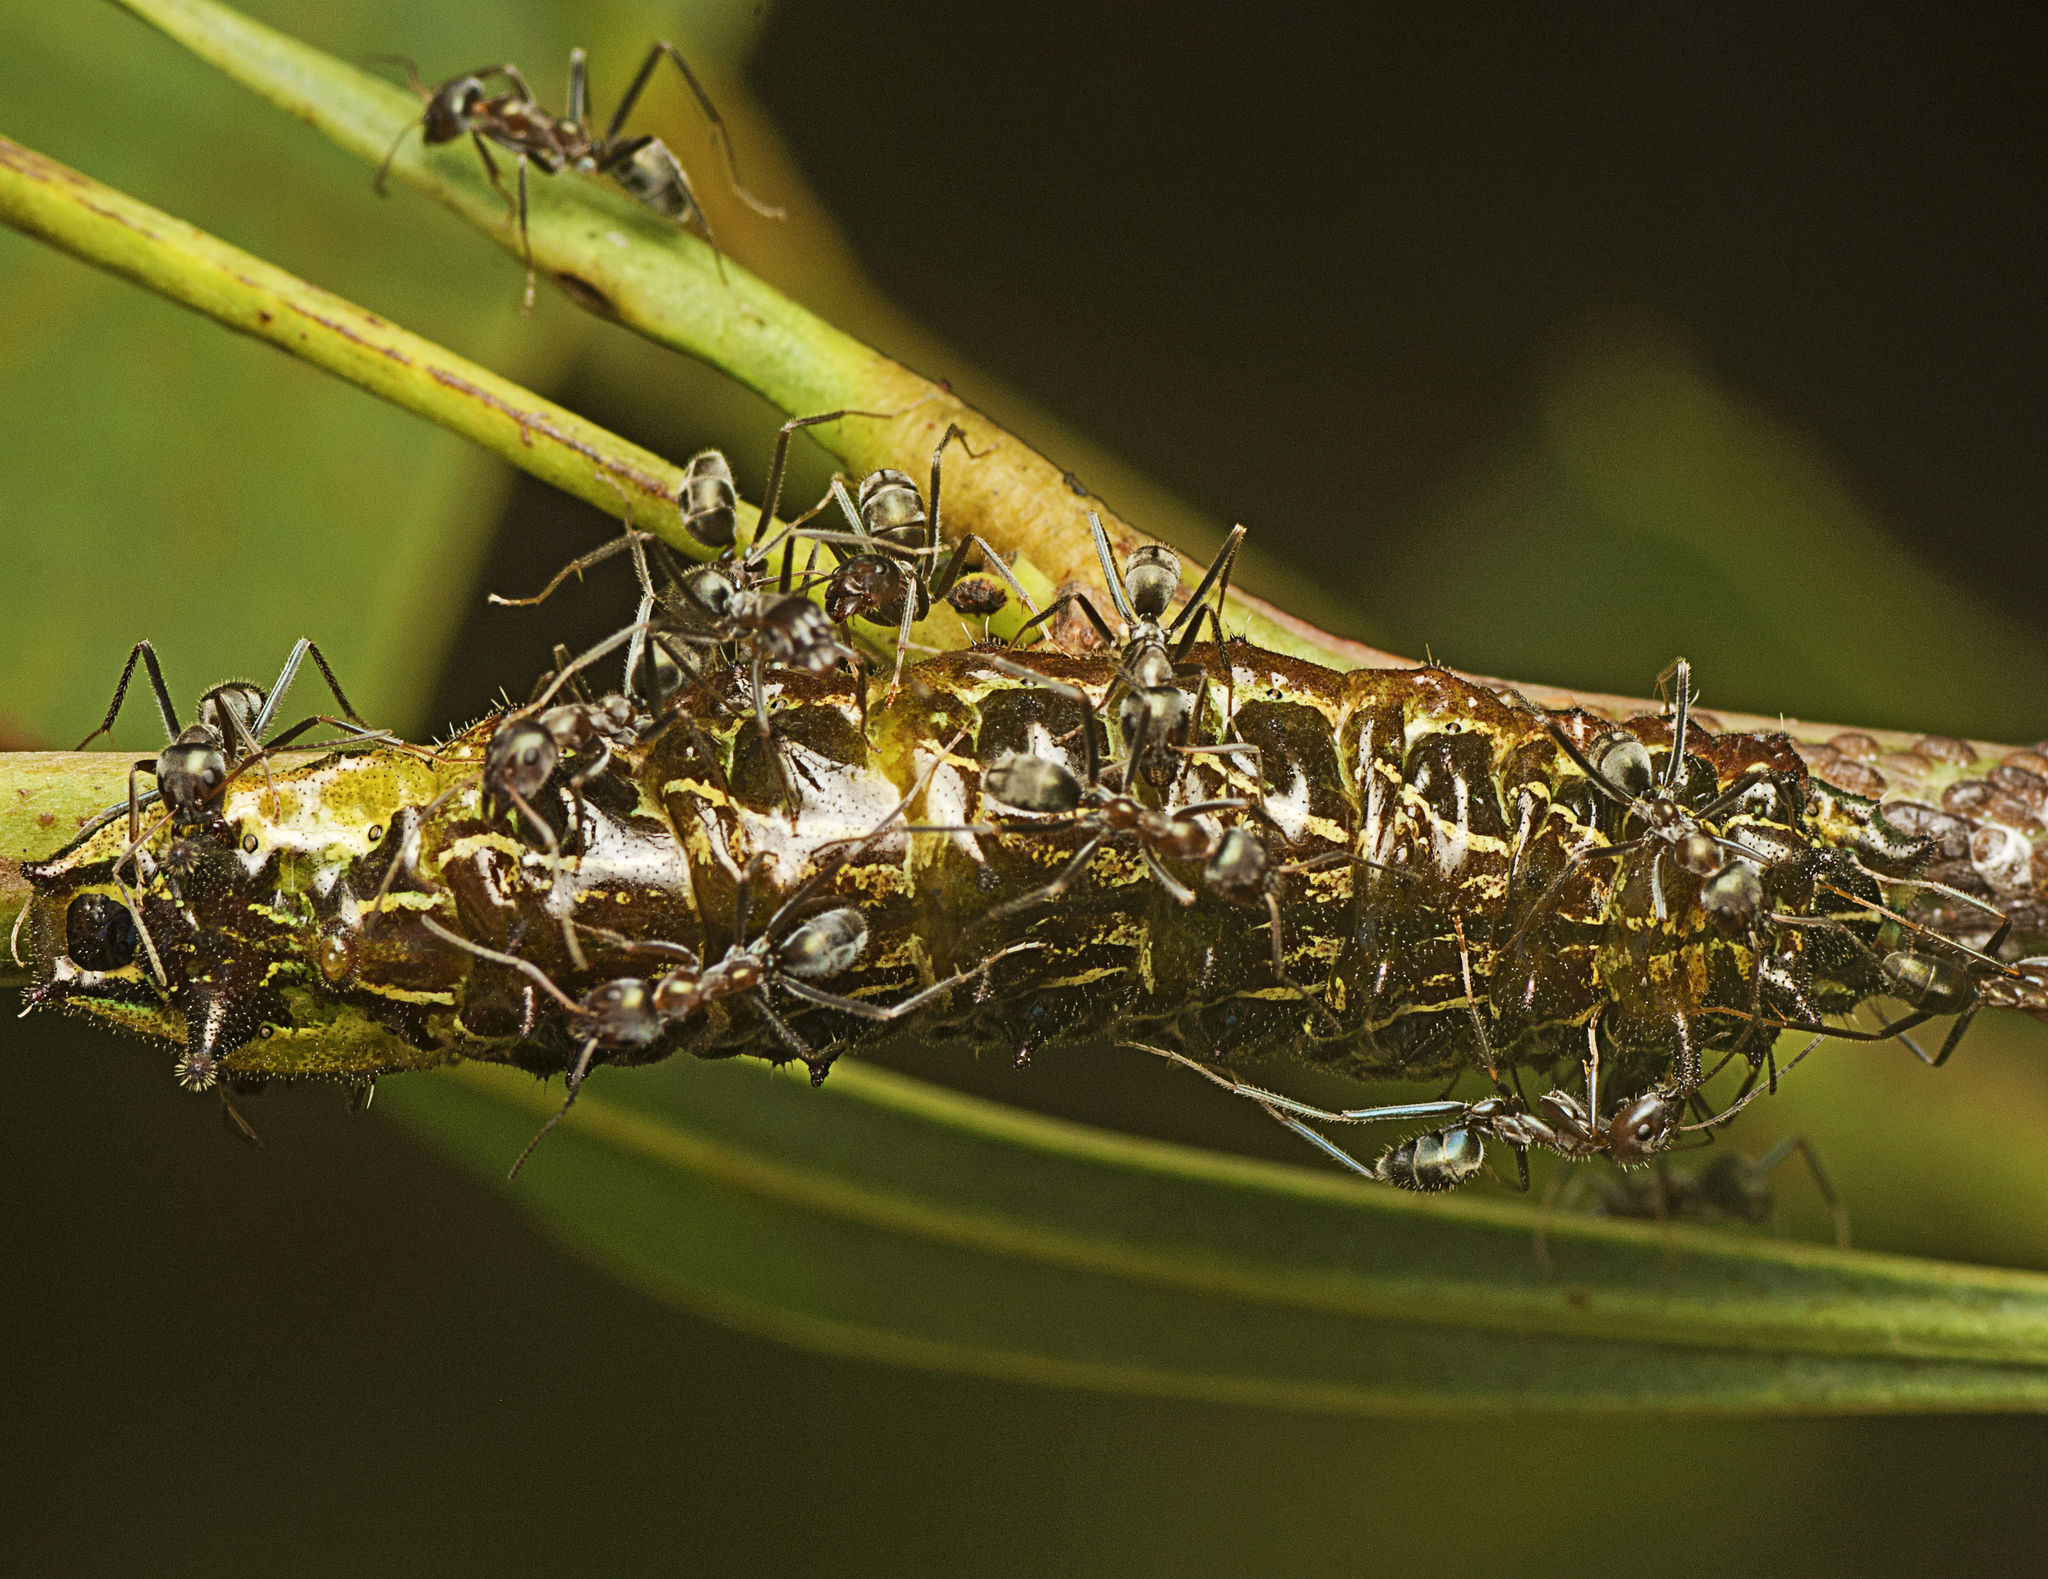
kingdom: Animalia
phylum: Arthropoda
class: Insecta
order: Lepidoptera
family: Lycaenidae
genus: Jalmenus
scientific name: Jalmenus evagoras
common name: Common imperial blue
